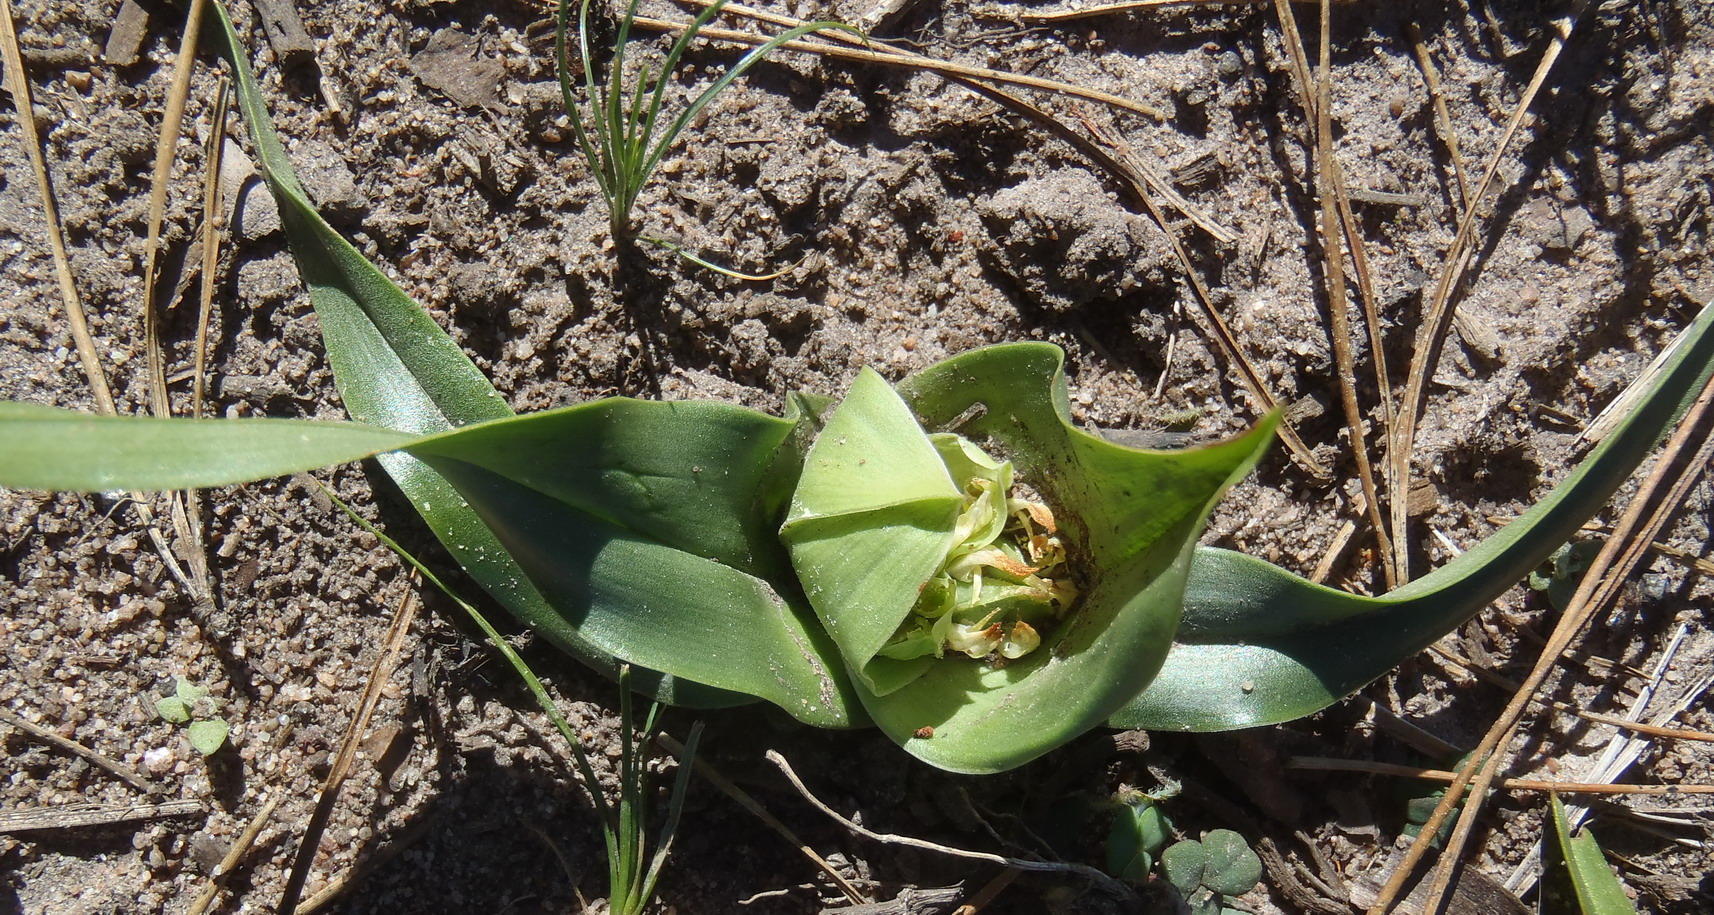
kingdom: Plantae
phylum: Tracheophyta
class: Liliopsida
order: Liliales
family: Colchicaceae
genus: Colchicum
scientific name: Colchicum eucomoides
